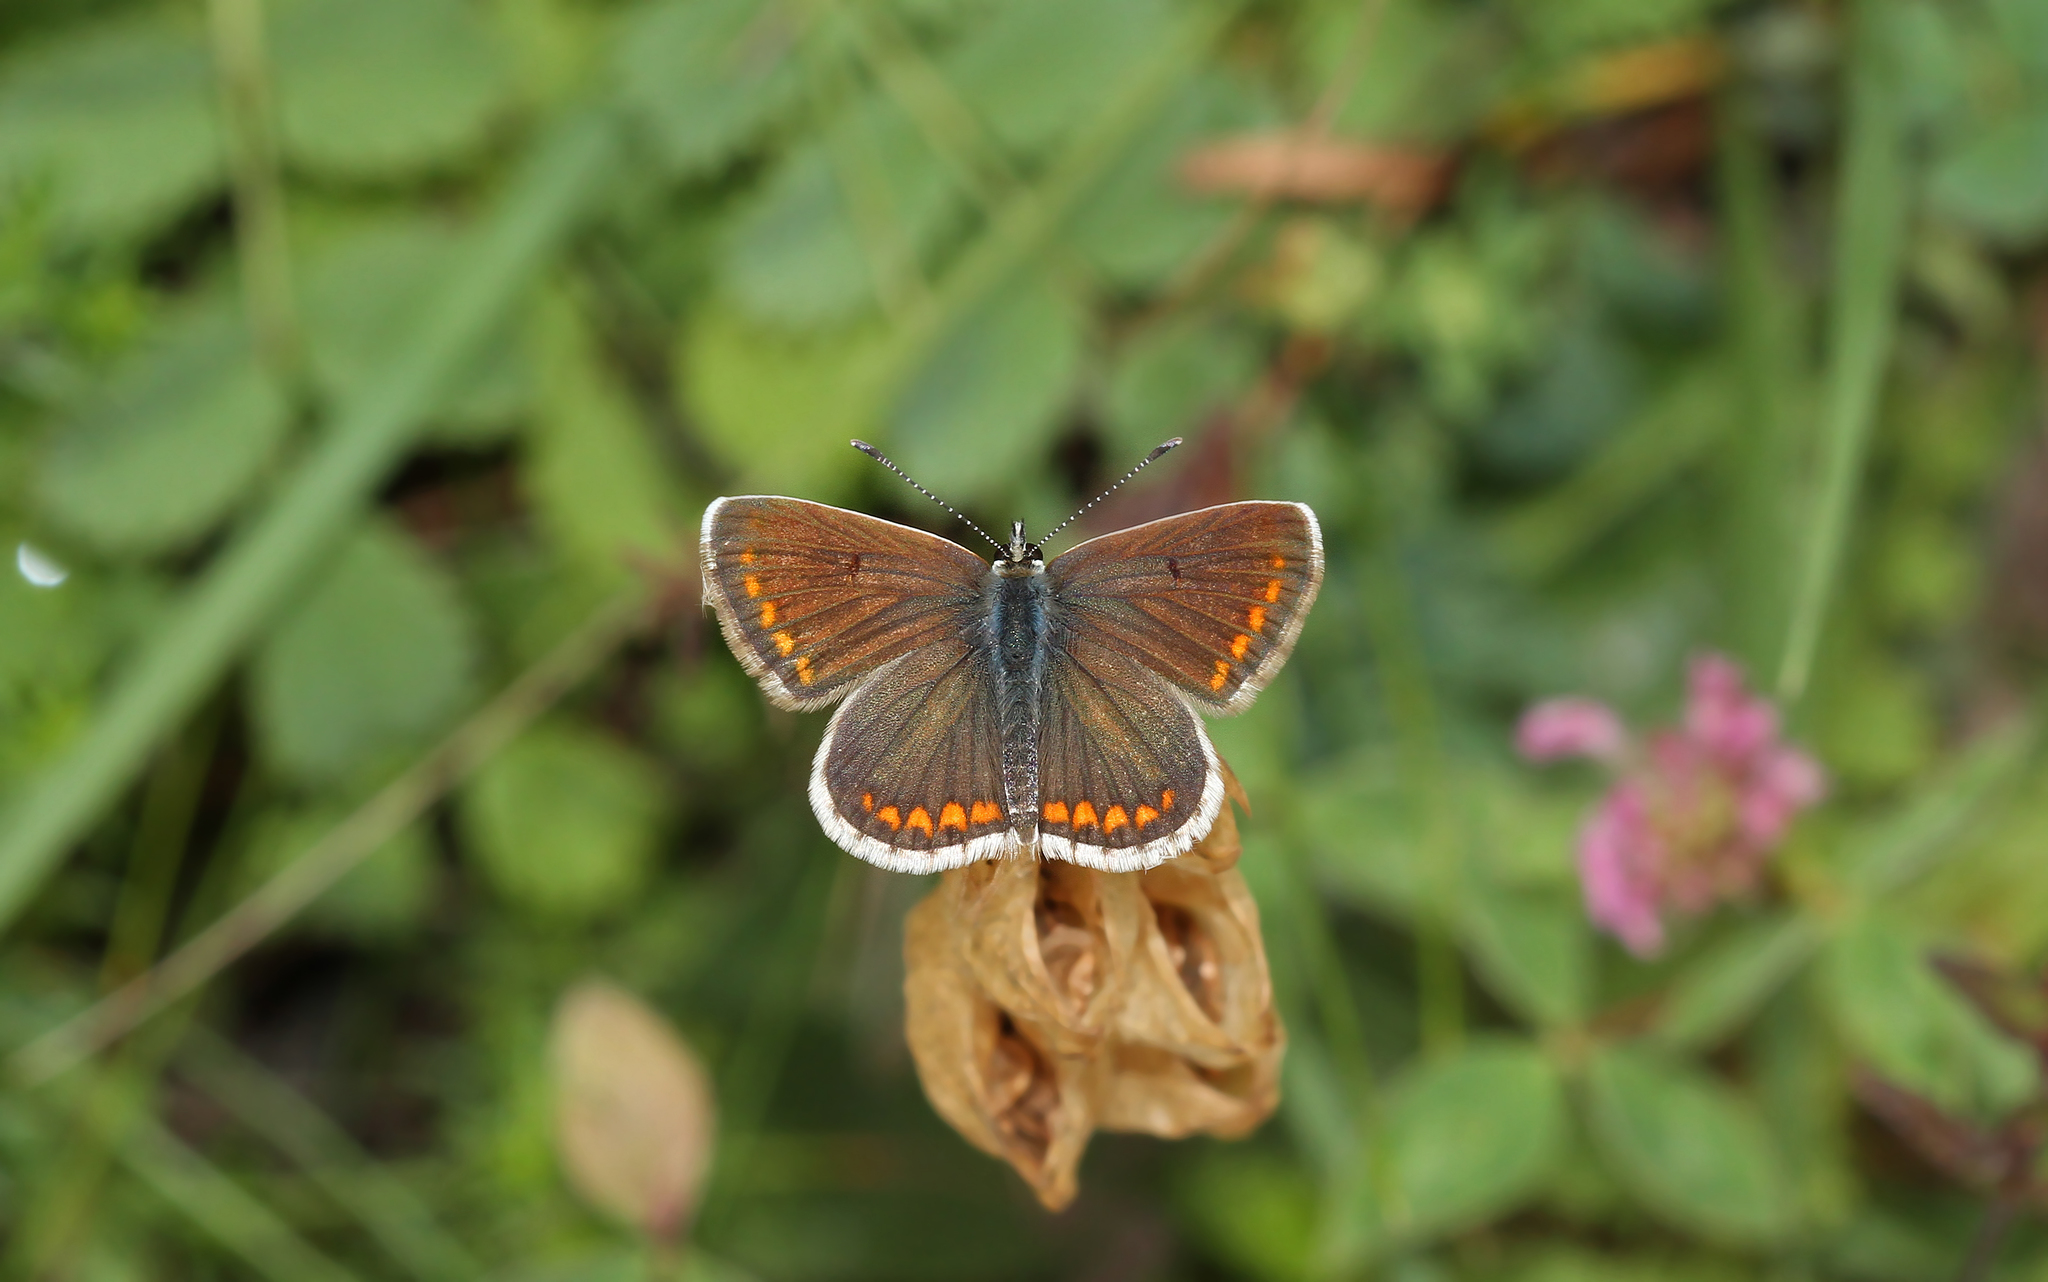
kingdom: Animalia
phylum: Arthropoda
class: Insecta
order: Lepidoptera
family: Lycaenidae
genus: Aricia
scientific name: Aricia agestis
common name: Brown argus
